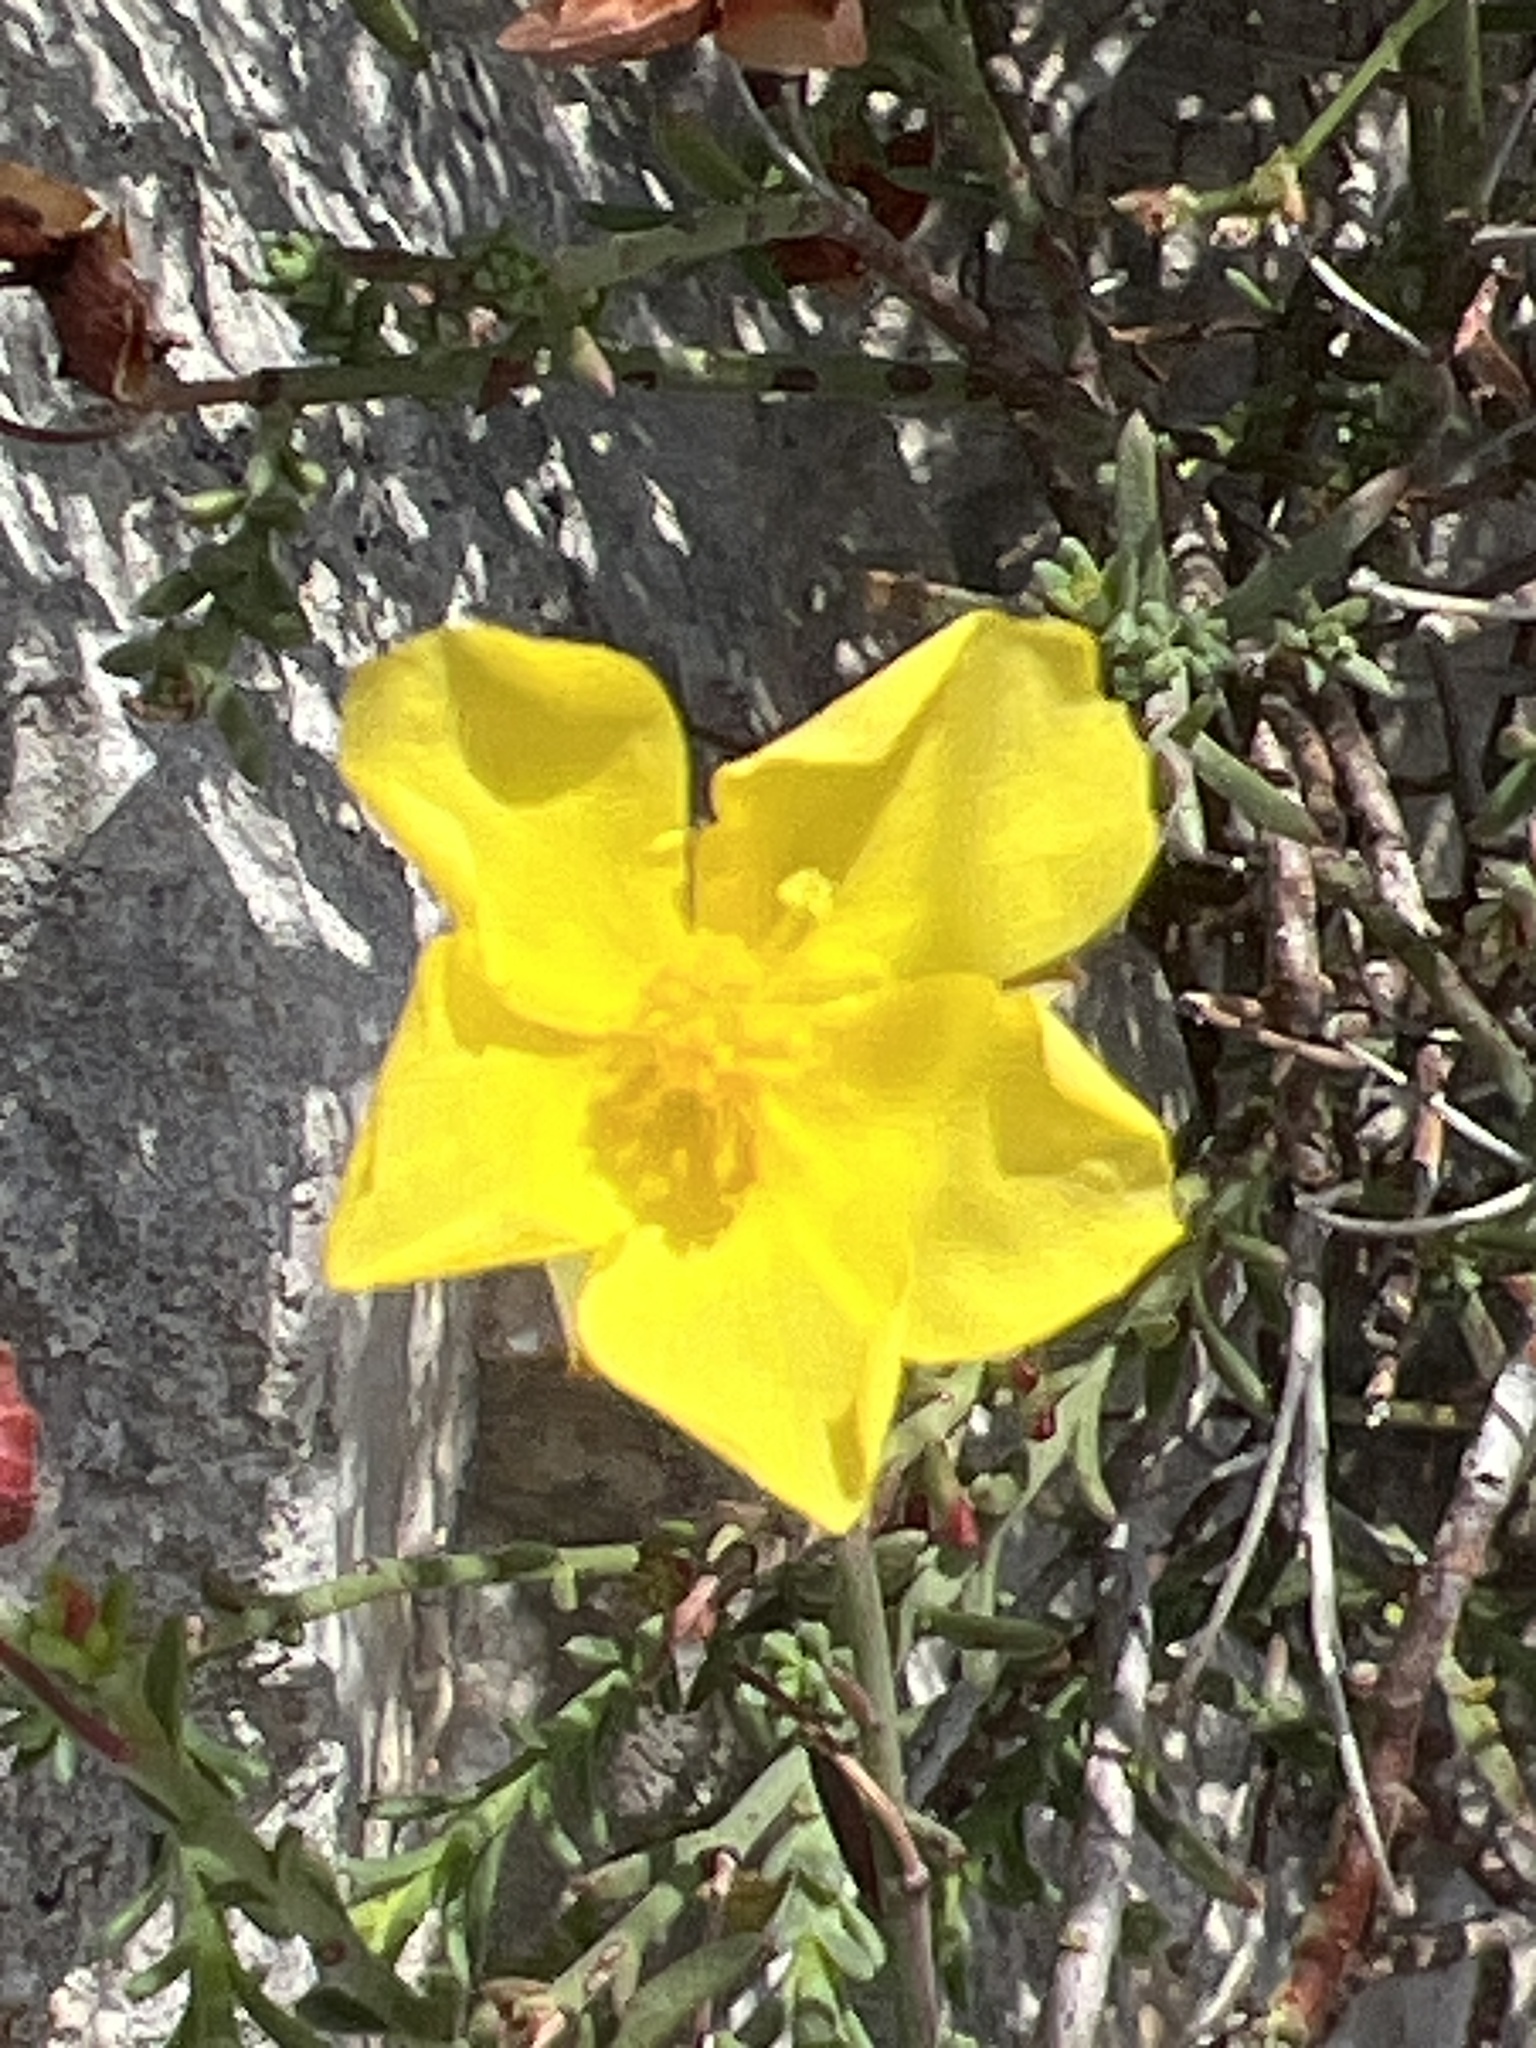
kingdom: Plantae
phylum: Tracheophyta
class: Magnoliopsida
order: Malvales
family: Cistaceae
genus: Fumana
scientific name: Fumana ericifolia
